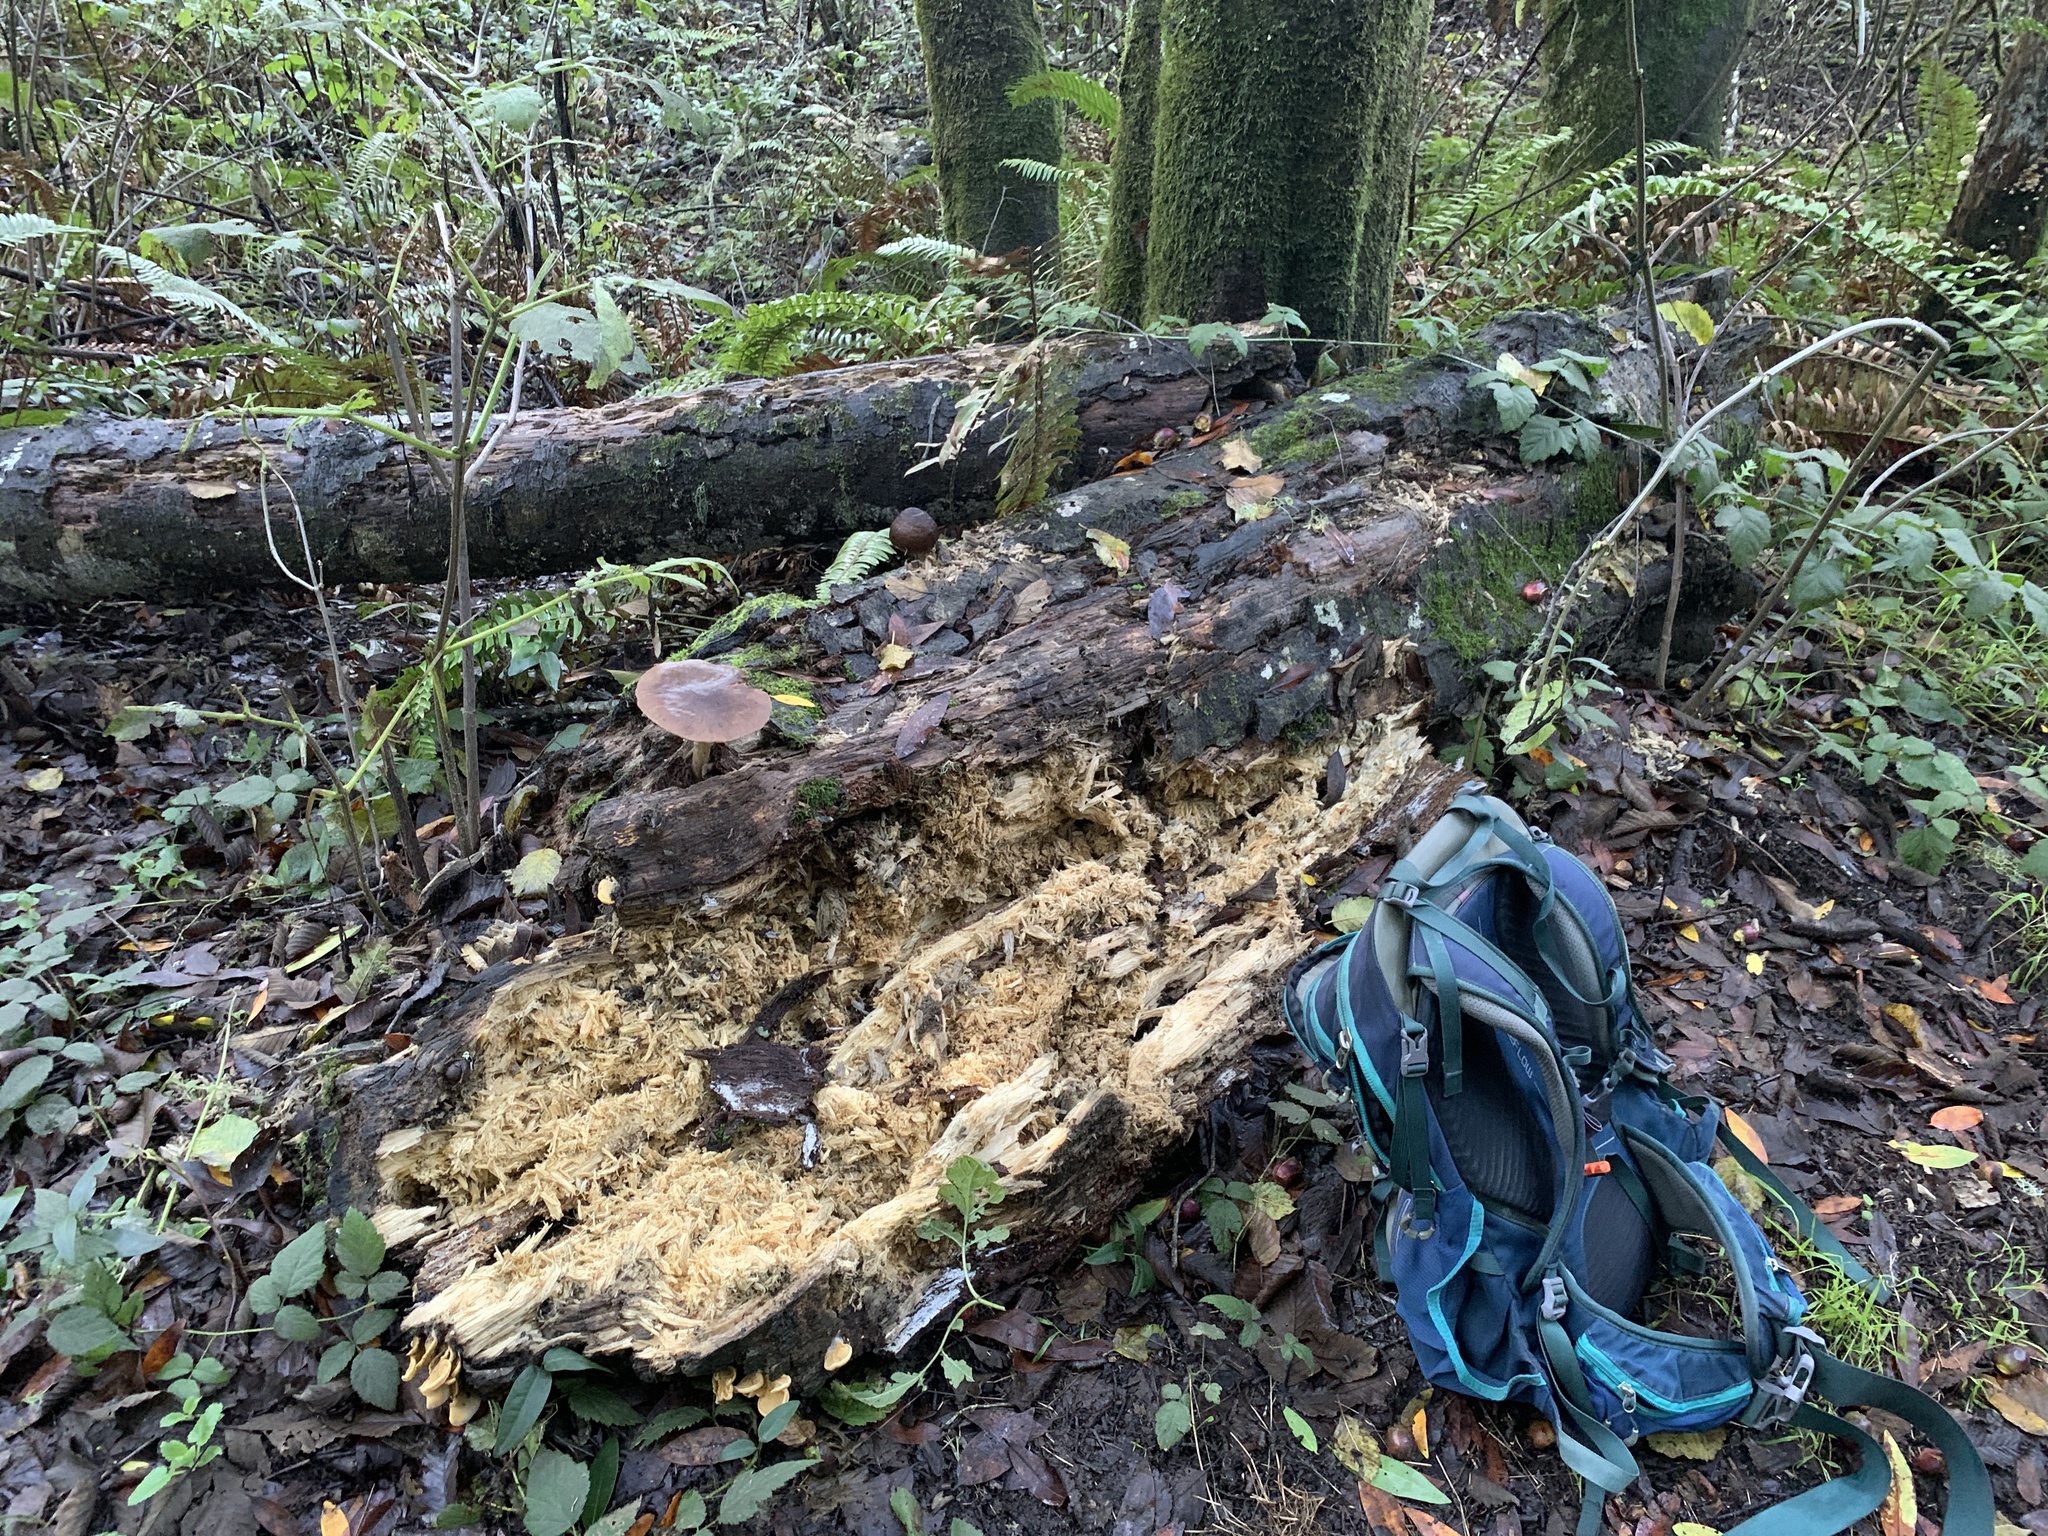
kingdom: Fungi
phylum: Basidiomycota
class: Agaricomycetes
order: Agaricales
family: Pluteaceae
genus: Pluteus
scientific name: Pluteus exilis
